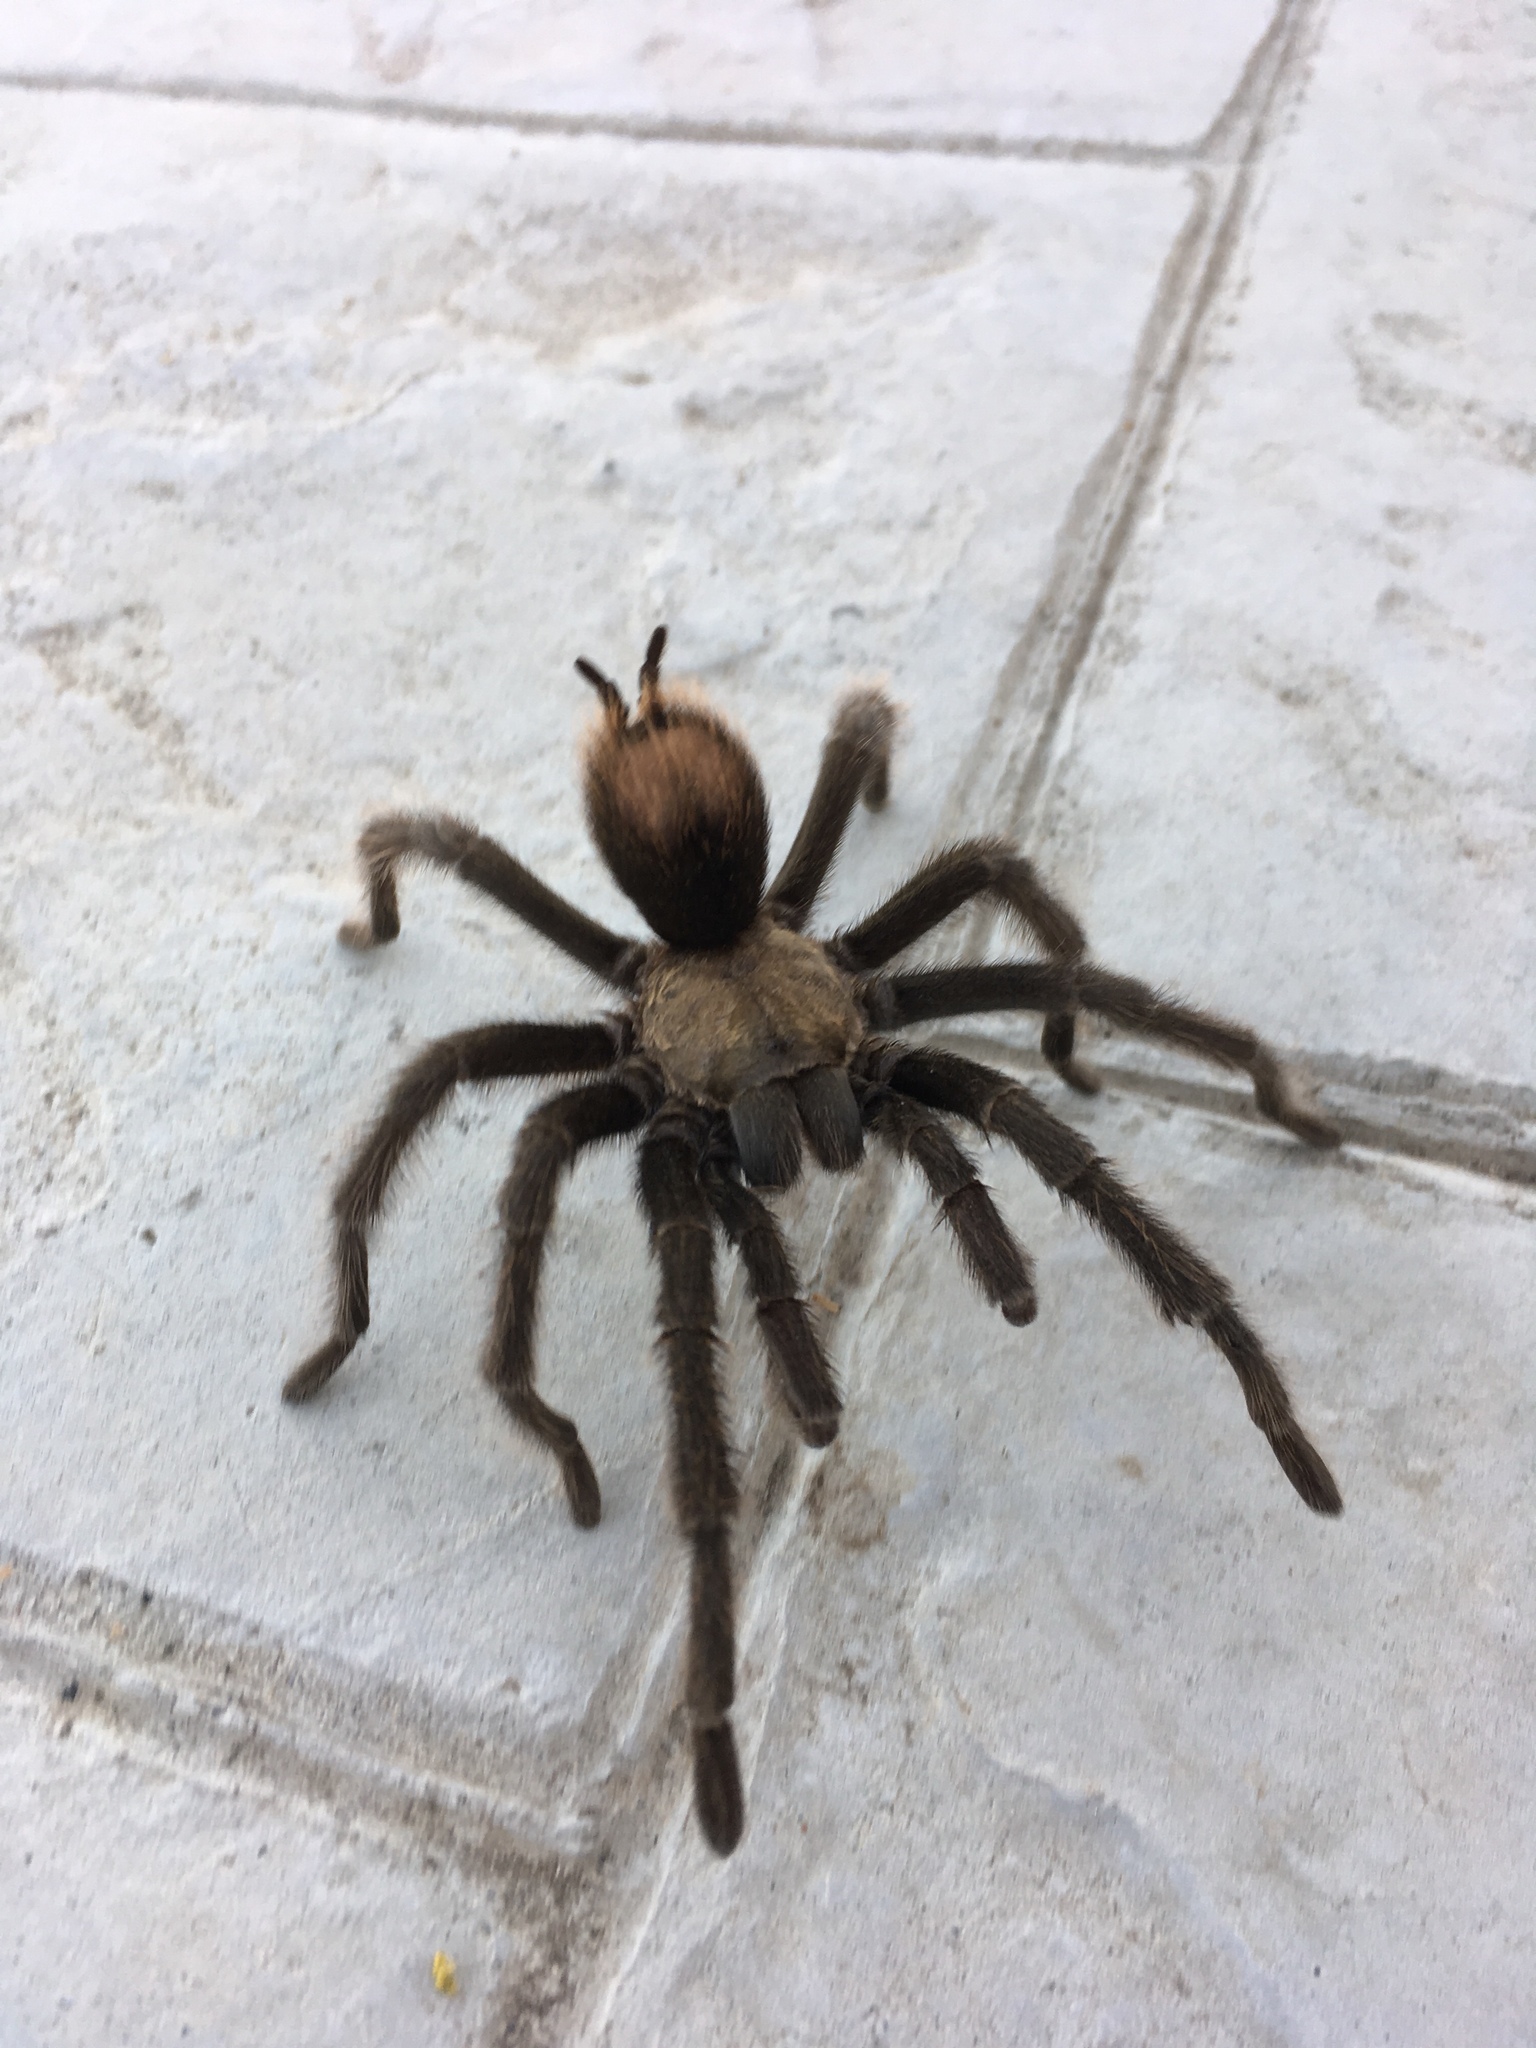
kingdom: Animalia
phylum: Arthropoda
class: Arachnida
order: Araneae
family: Theraphosidae
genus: Aphonopelma
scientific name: Aphonopelma iodius
